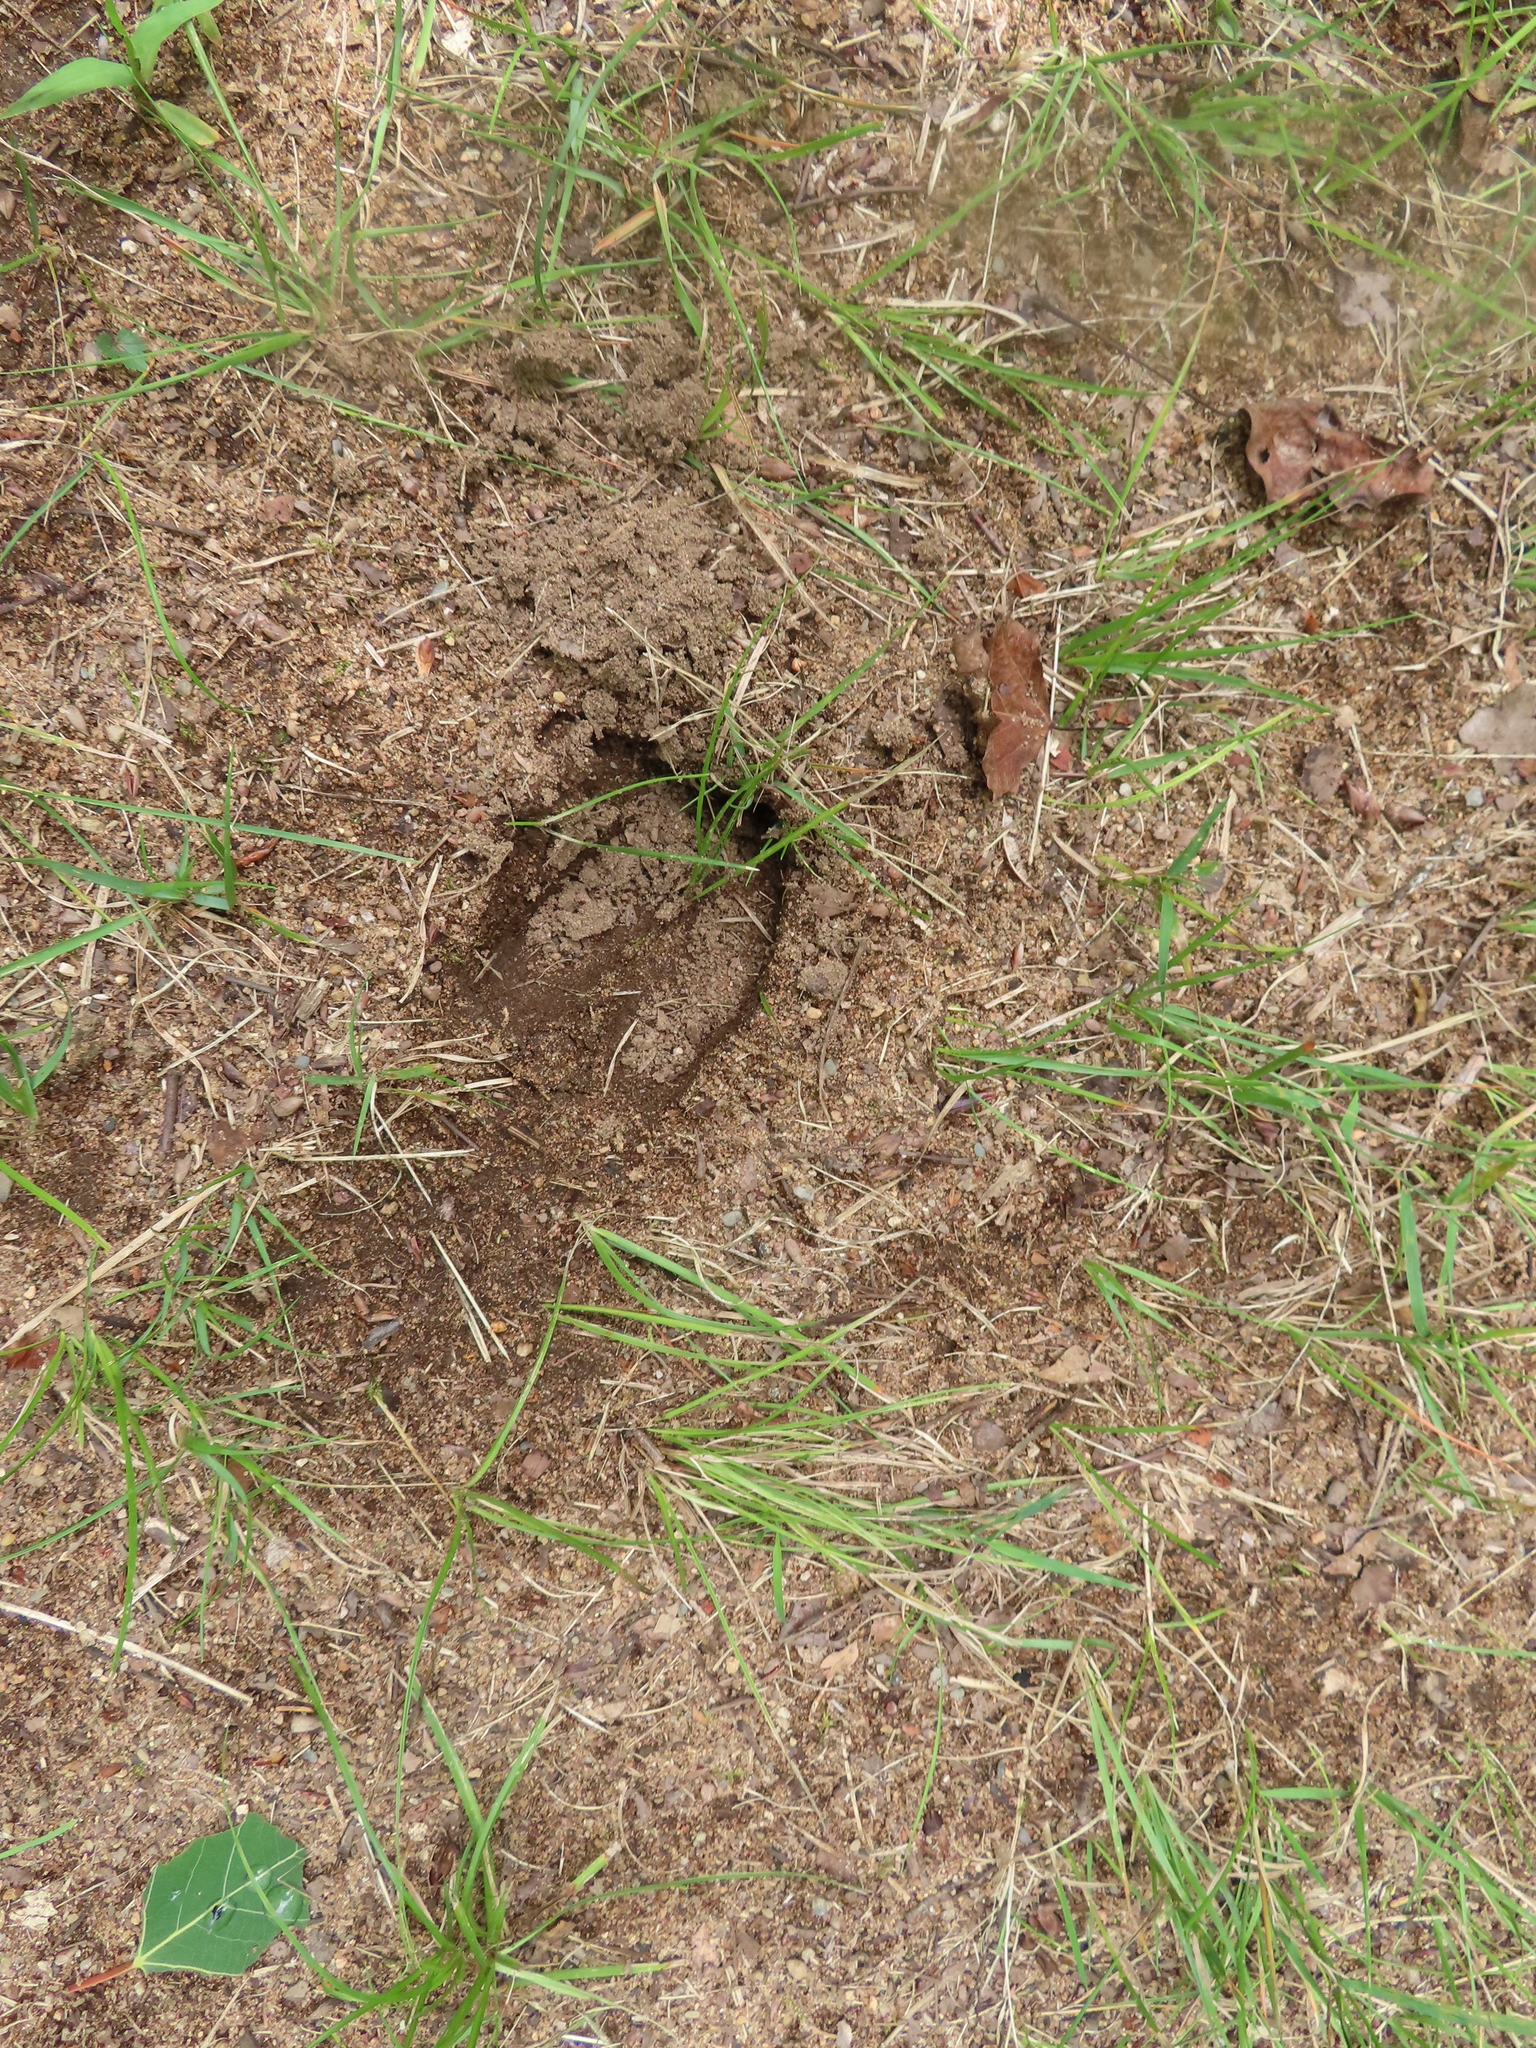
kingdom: Animalia
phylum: Chordata
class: Mammalia
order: Artiodactyla
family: Cervidae
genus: Odocoileus
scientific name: Odocoileus virginianus
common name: White-tailed deer
